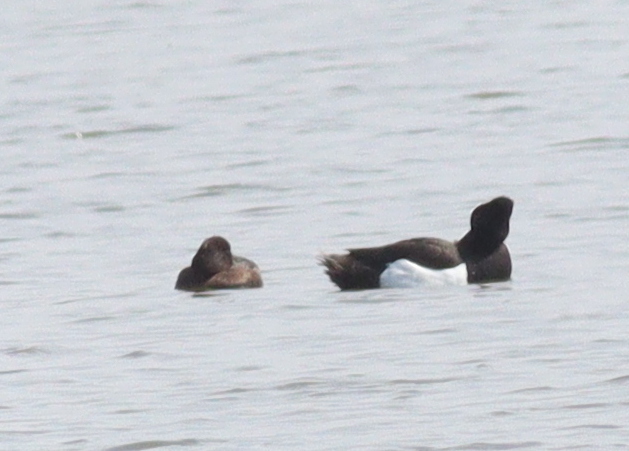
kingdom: Animalia
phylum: Chordata
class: Aves
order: Anseriformes
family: Anatidae
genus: Aythya
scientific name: Aythya fuligula
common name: Tufted duck
